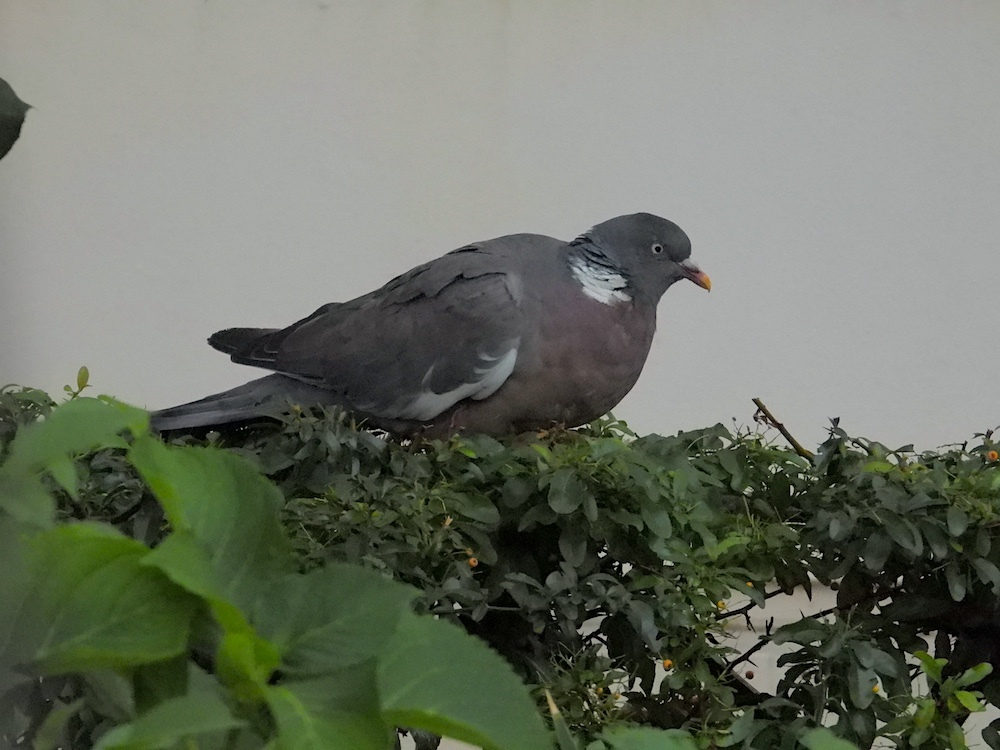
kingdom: Animalia
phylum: Chordata
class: Aves
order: Columbiformes
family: Columbidae
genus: Columba
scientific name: Columba palumbus
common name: Common wood pigeon
